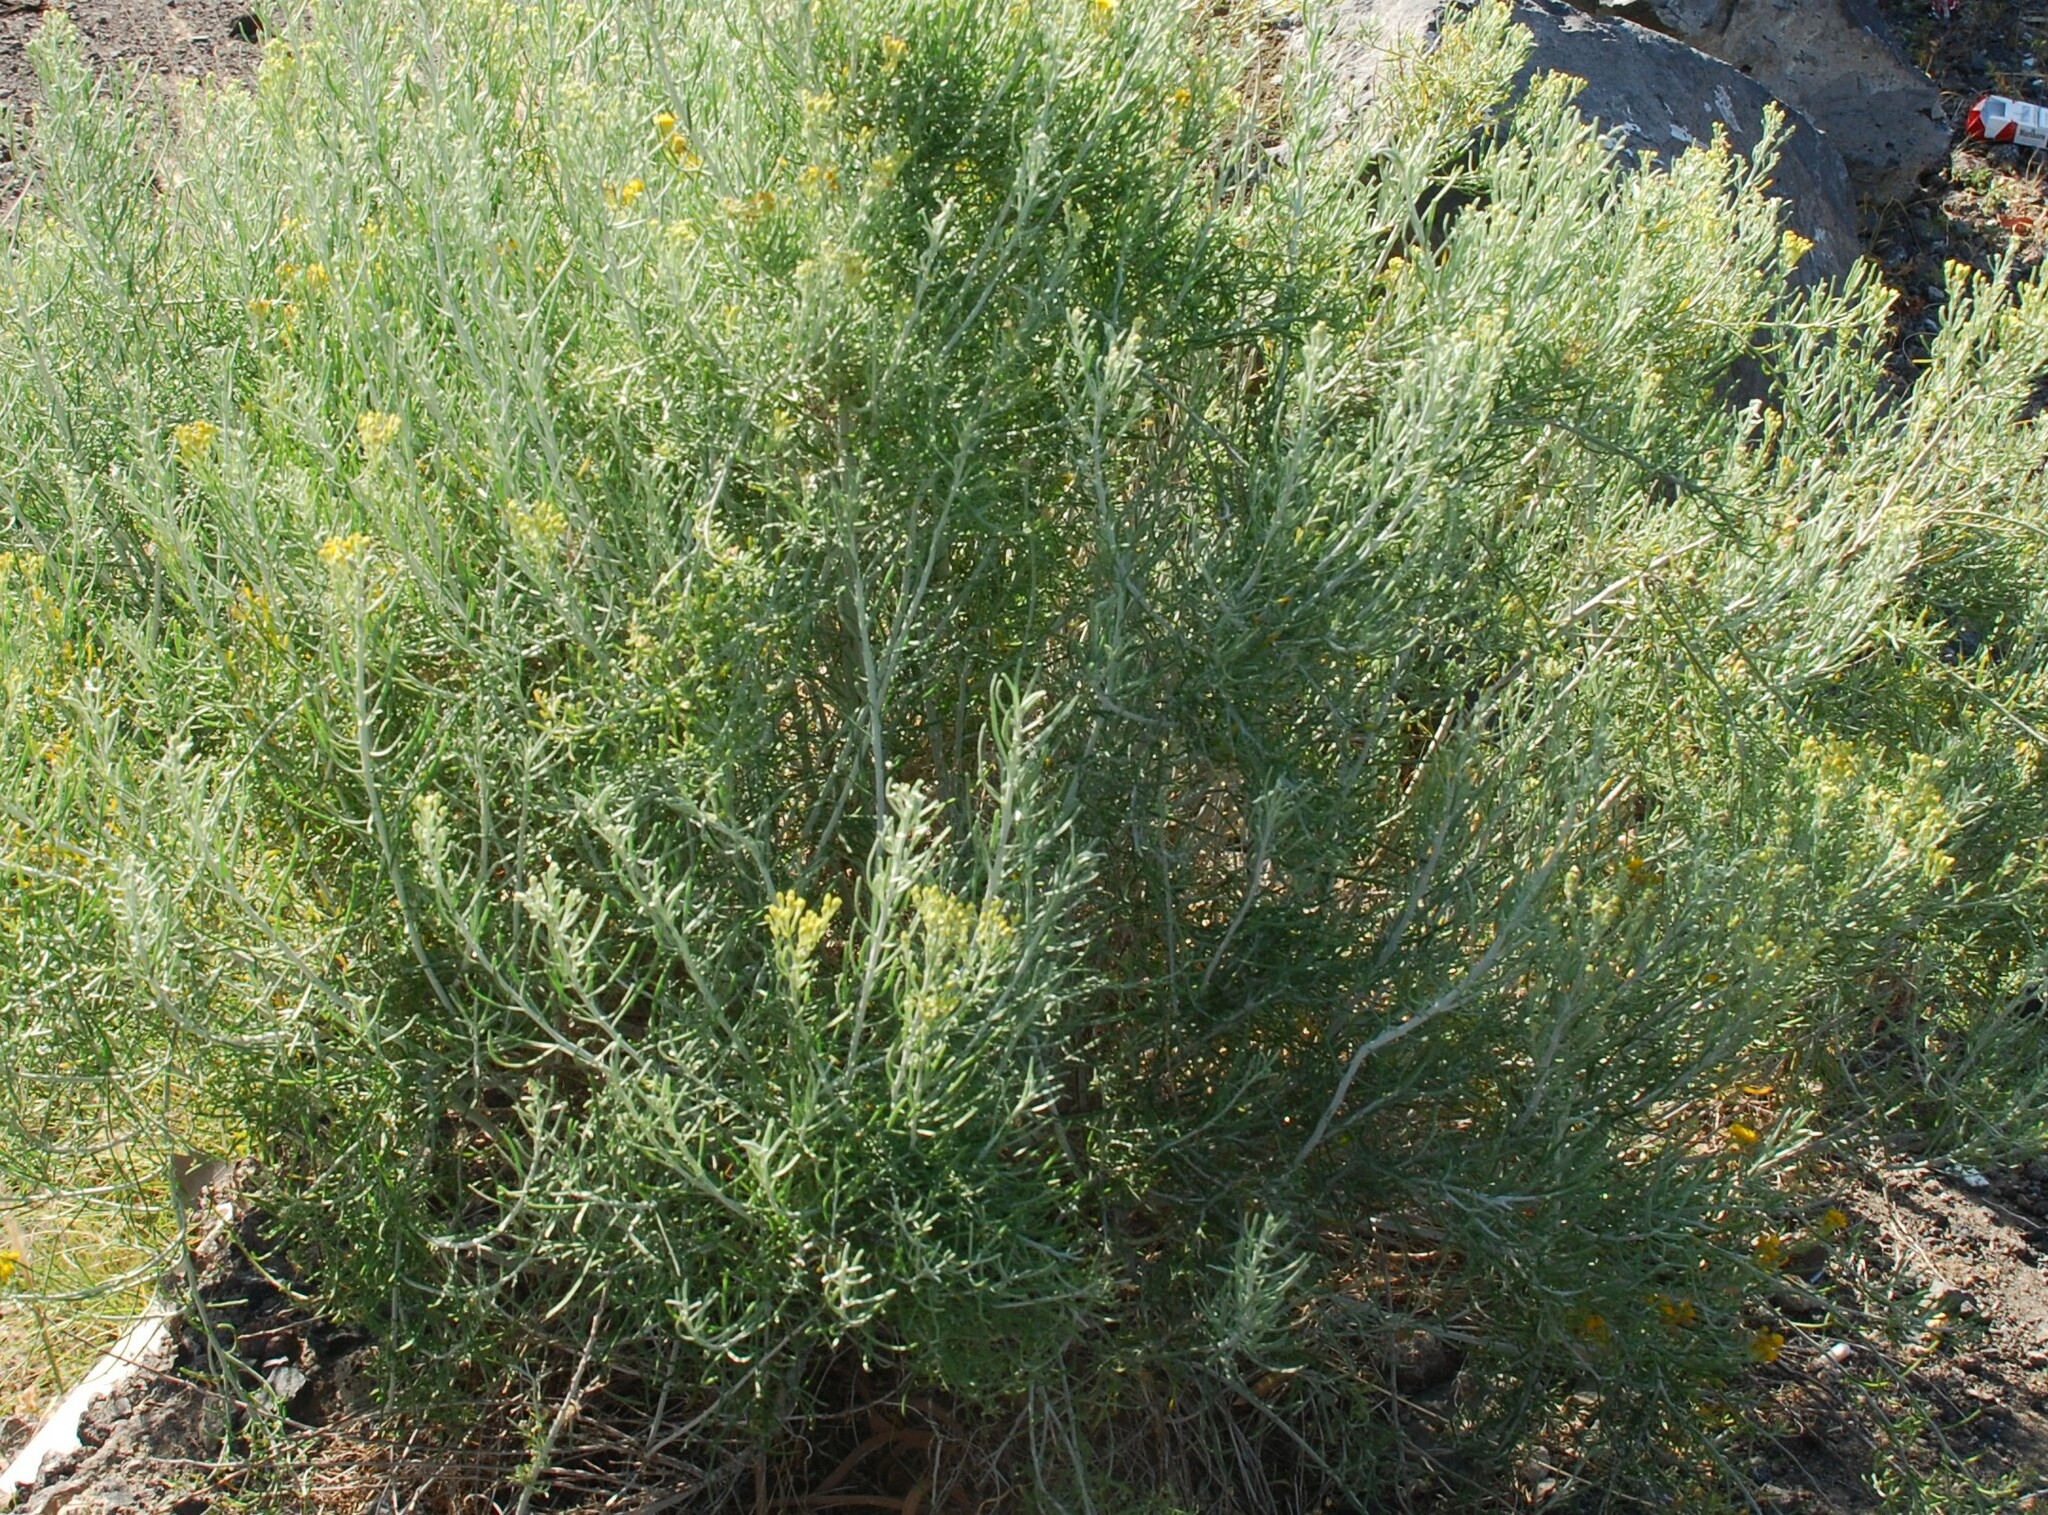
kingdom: Plantae
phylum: Tracheophyta
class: Magnoliopsida
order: Asterales
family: Asteraceae
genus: Schizogyne
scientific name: Schizogyne sericea
